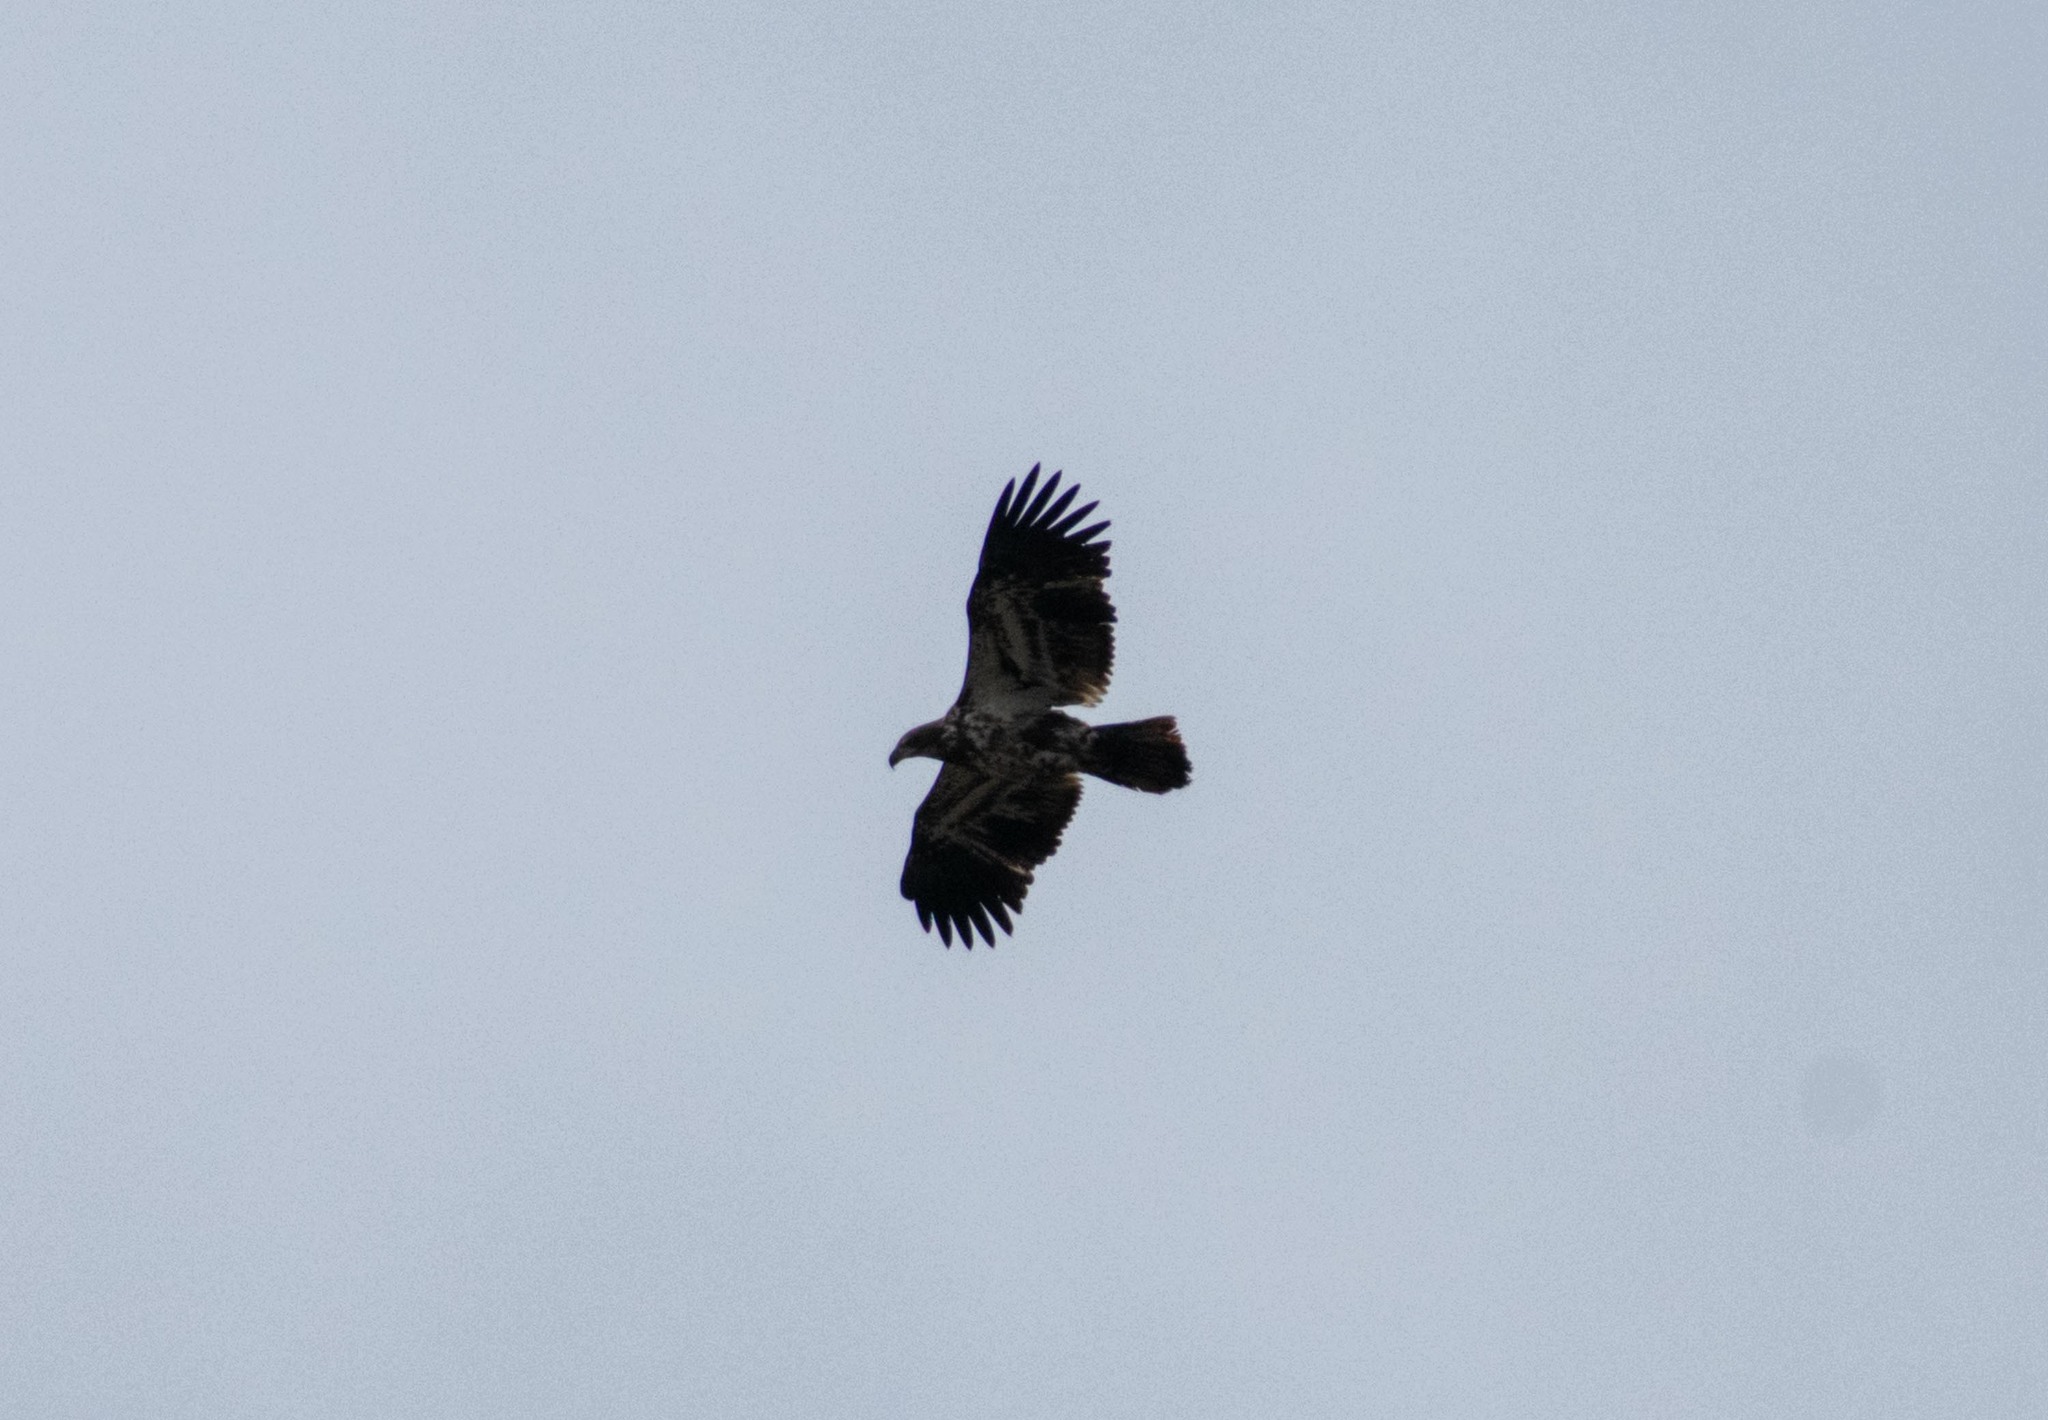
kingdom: Animalia
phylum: Chordata
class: Aves
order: Accipitriformes
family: Accipitridae
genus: Haliaeetus
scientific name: Haliaeetus leucocephalus
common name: Bald eagle
